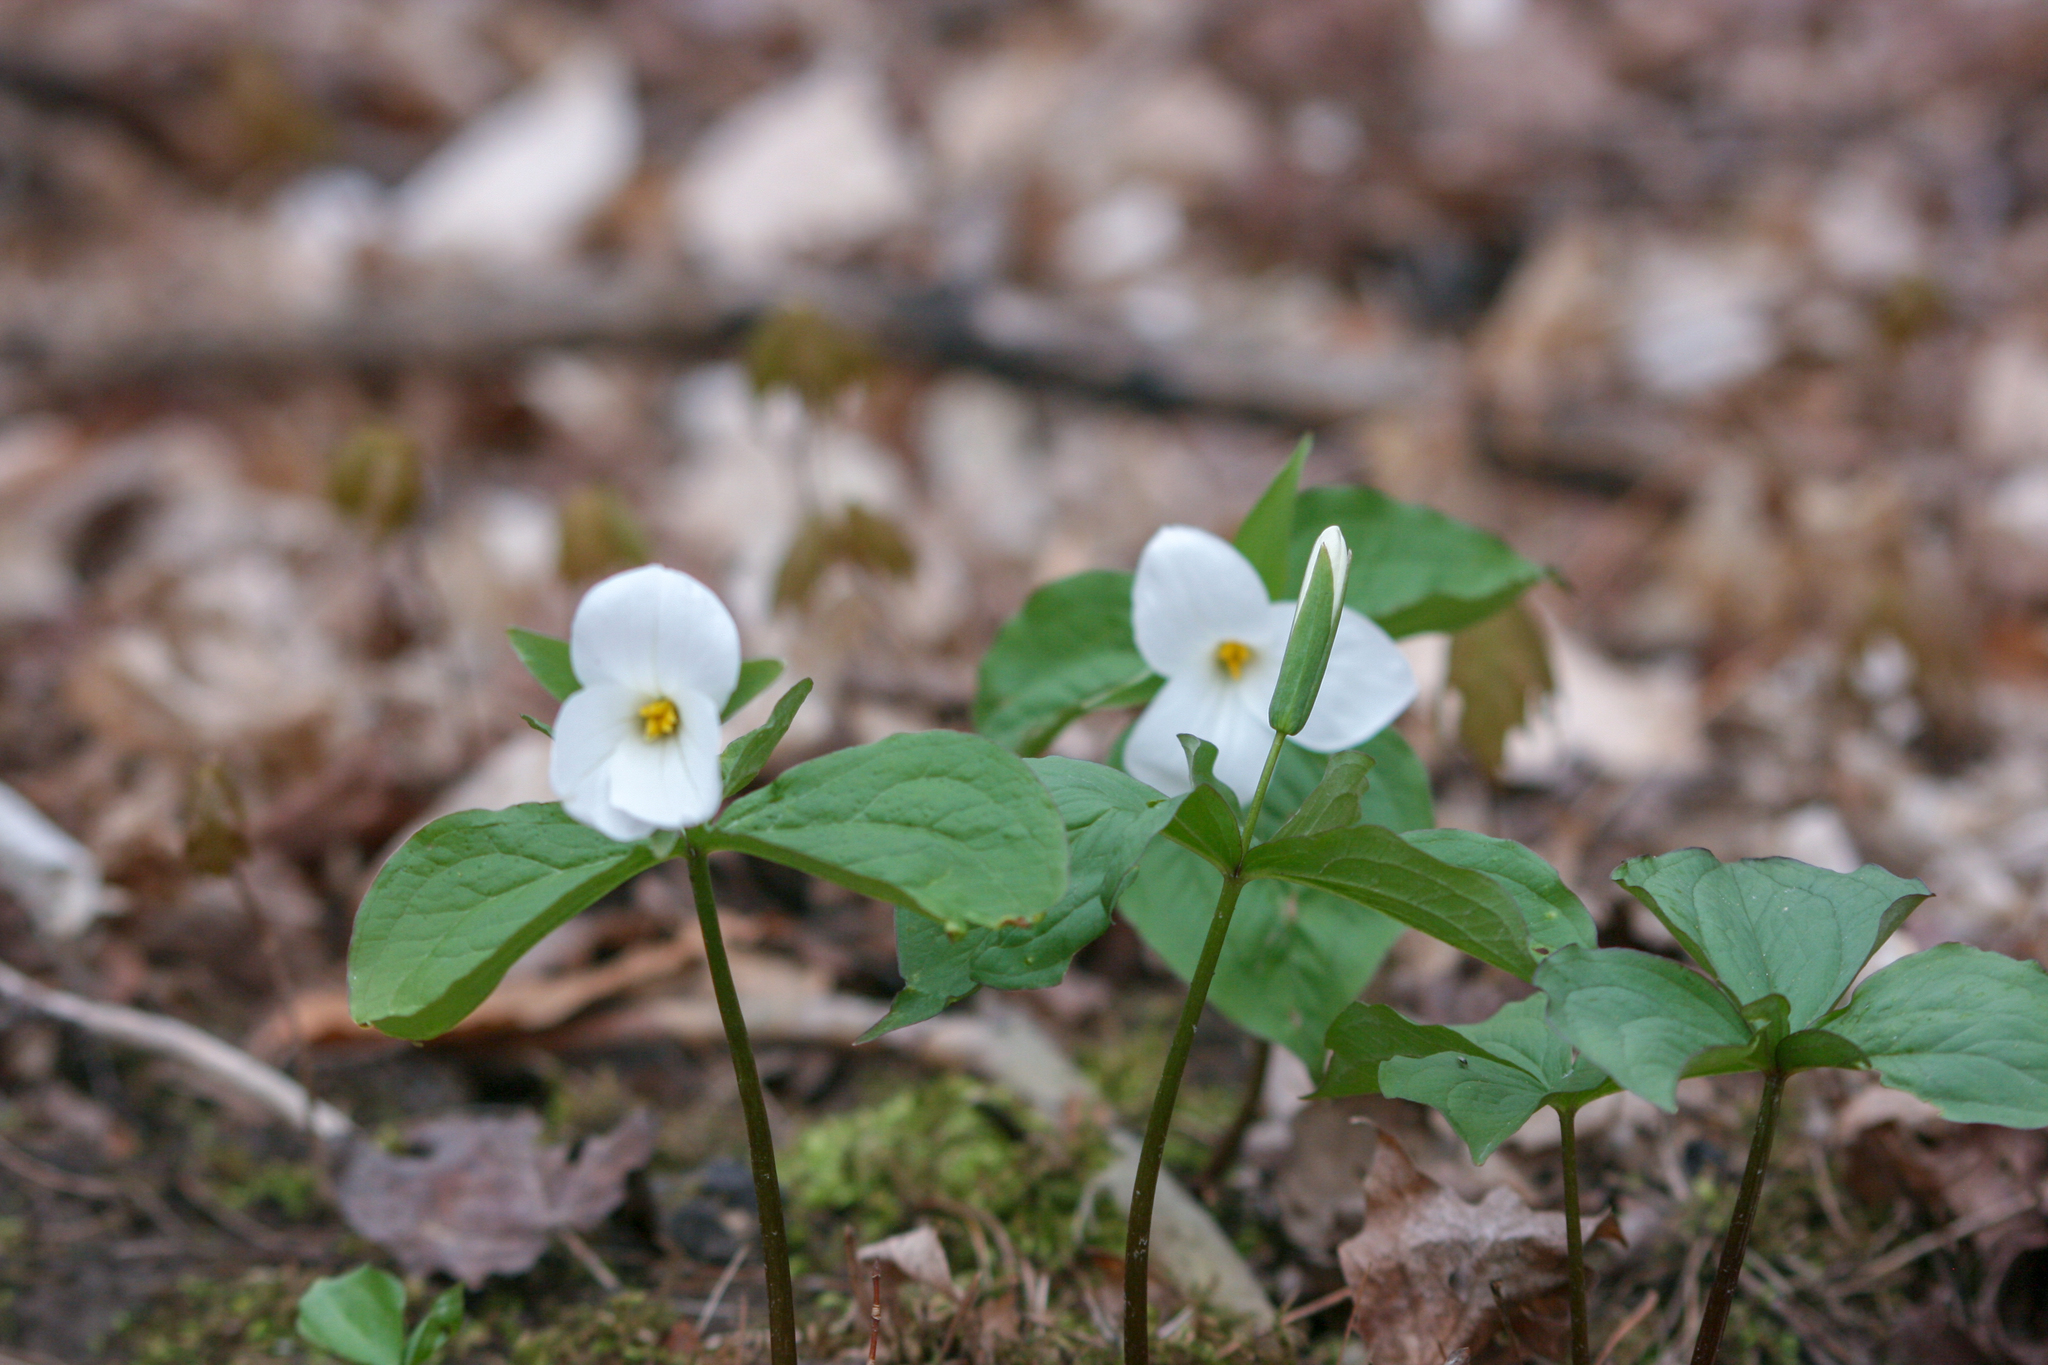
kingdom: Plantae
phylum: Tracheophyta
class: Liliopsida
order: Liliales
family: Melanthiaceae
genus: Trillium
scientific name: Trillium grandiflorum
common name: Great white trillium
